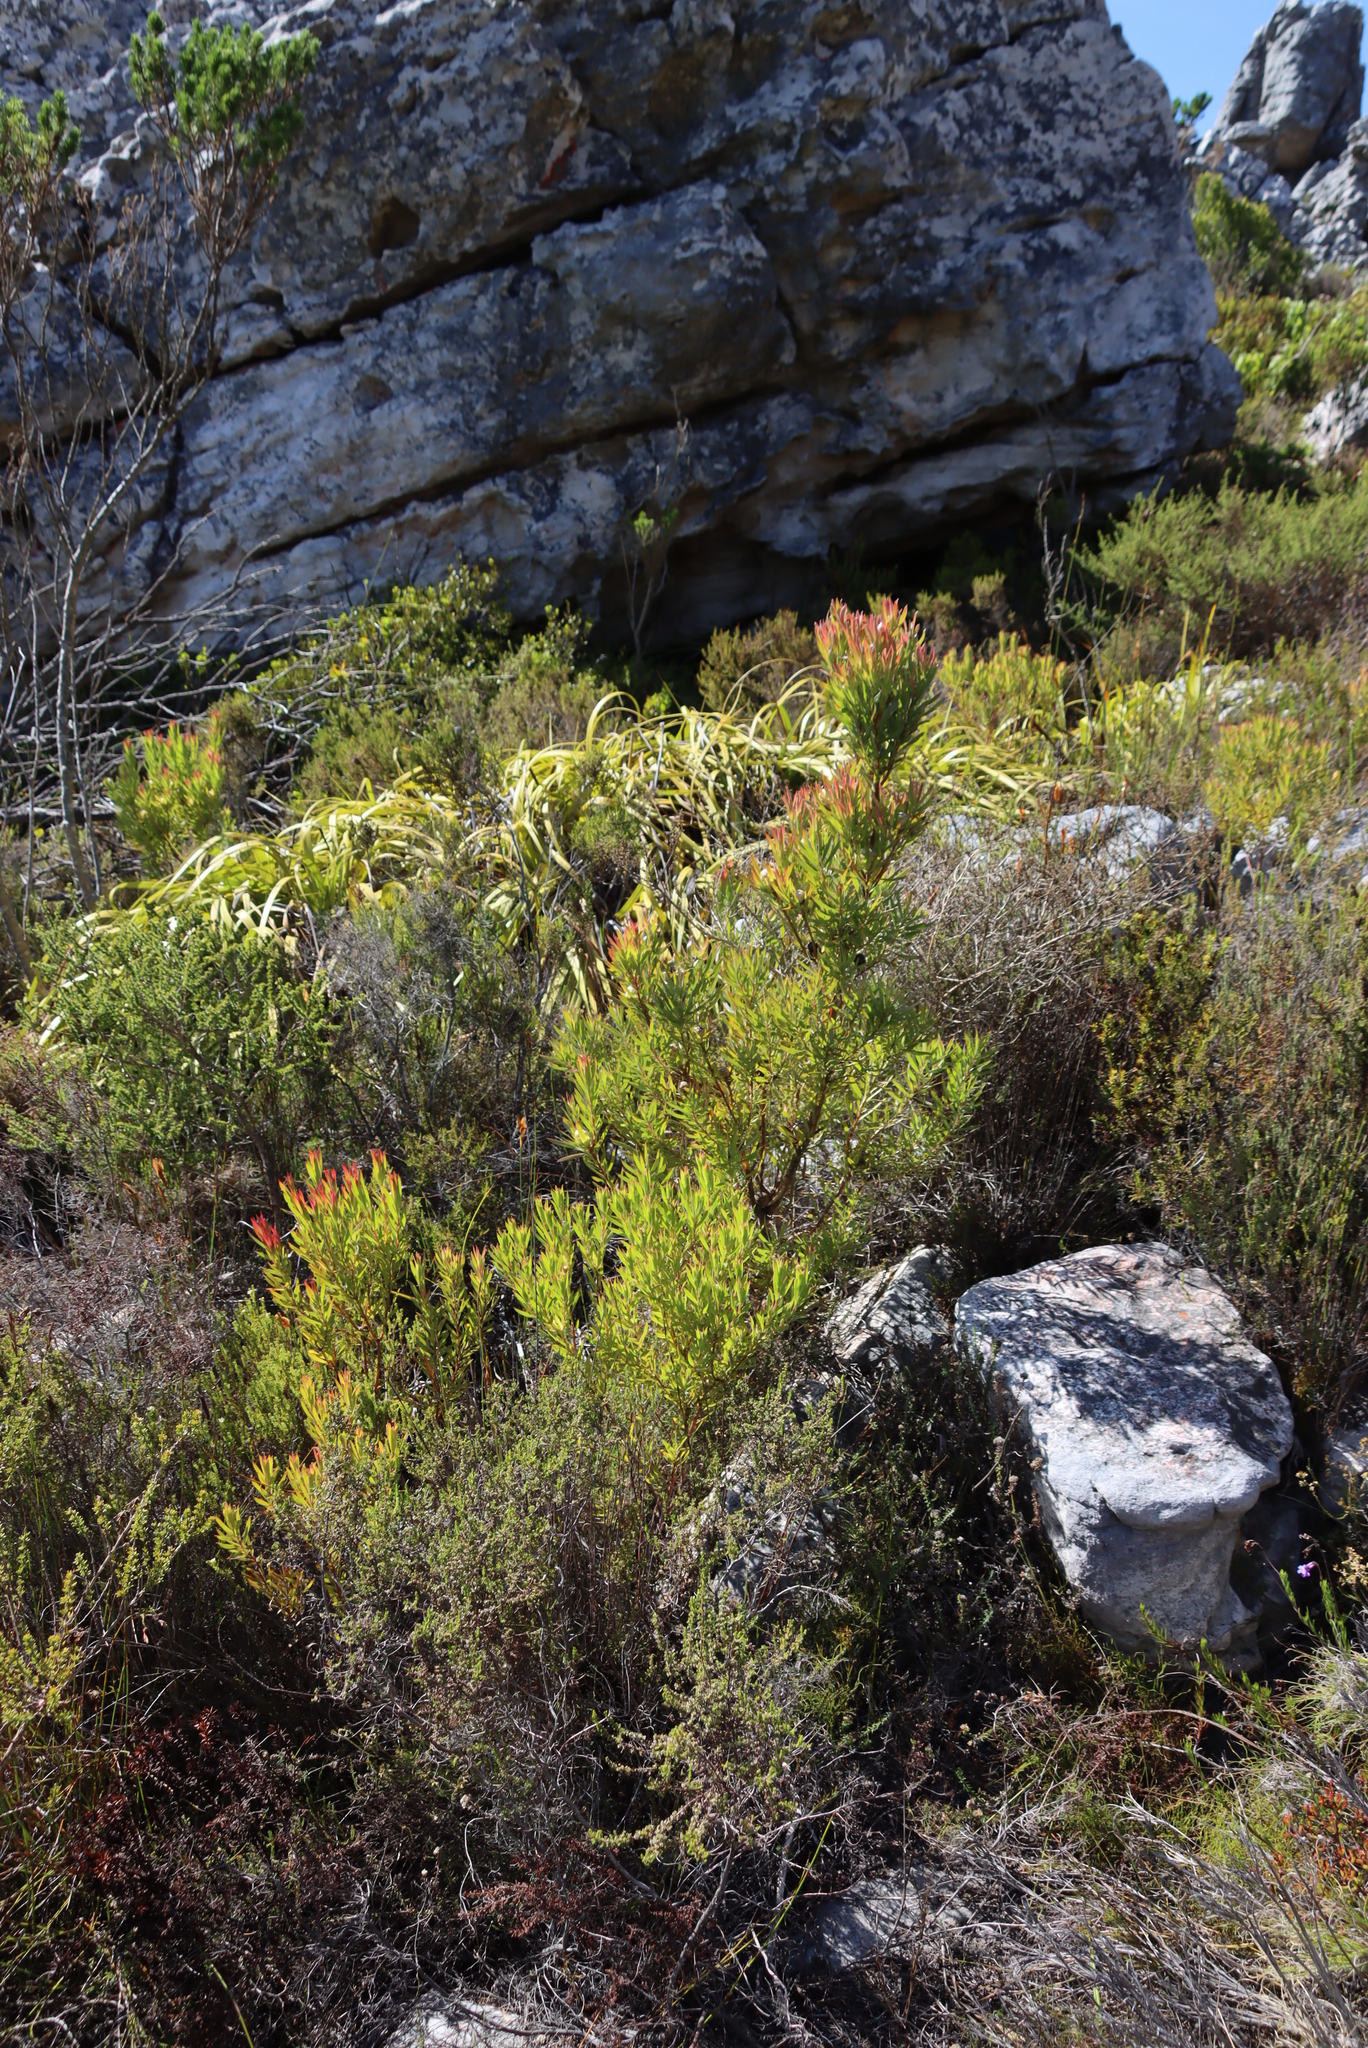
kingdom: Plantae
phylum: Tracheophyta
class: Magnoliopsida
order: Proteales
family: Proteaceae
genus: Leucadendron
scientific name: Leucadendron xanthoconus
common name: Sickle-leaf conebush
